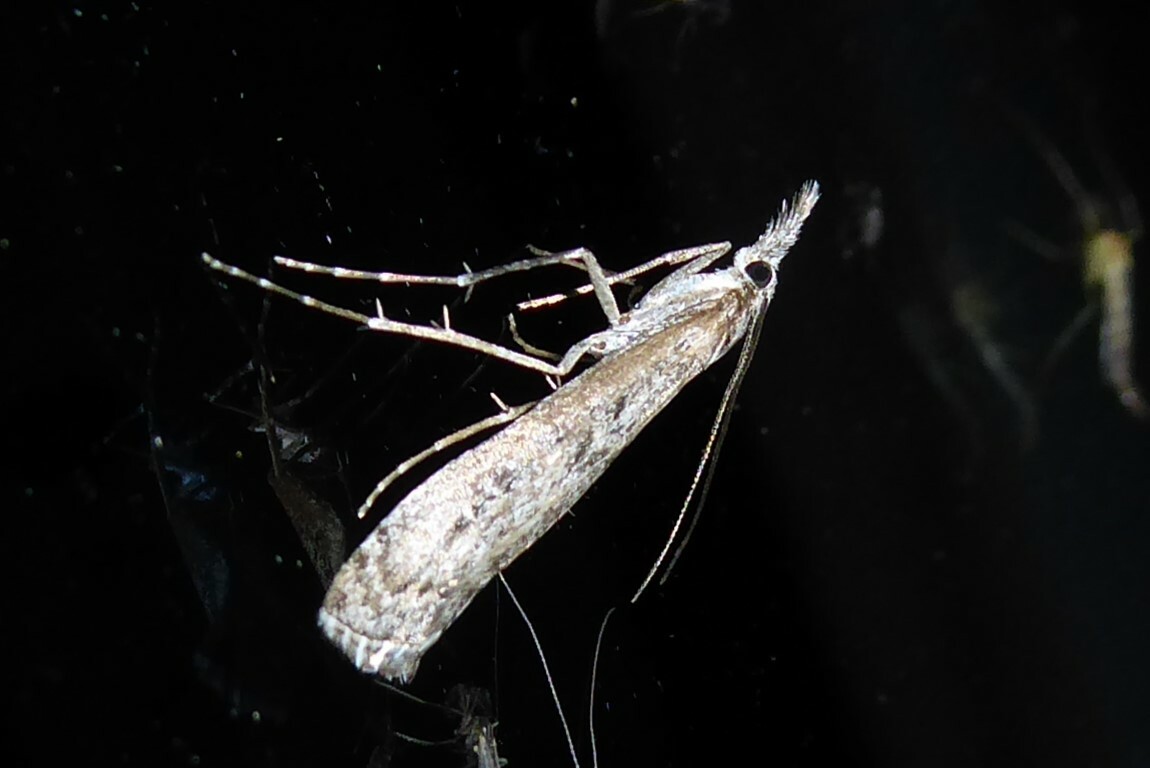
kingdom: Animalia
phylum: Arthropoda
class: Insecta
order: Lepidoptera
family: Crambidae
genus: Orocrambus
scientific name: Orocrambus cyclopicus
